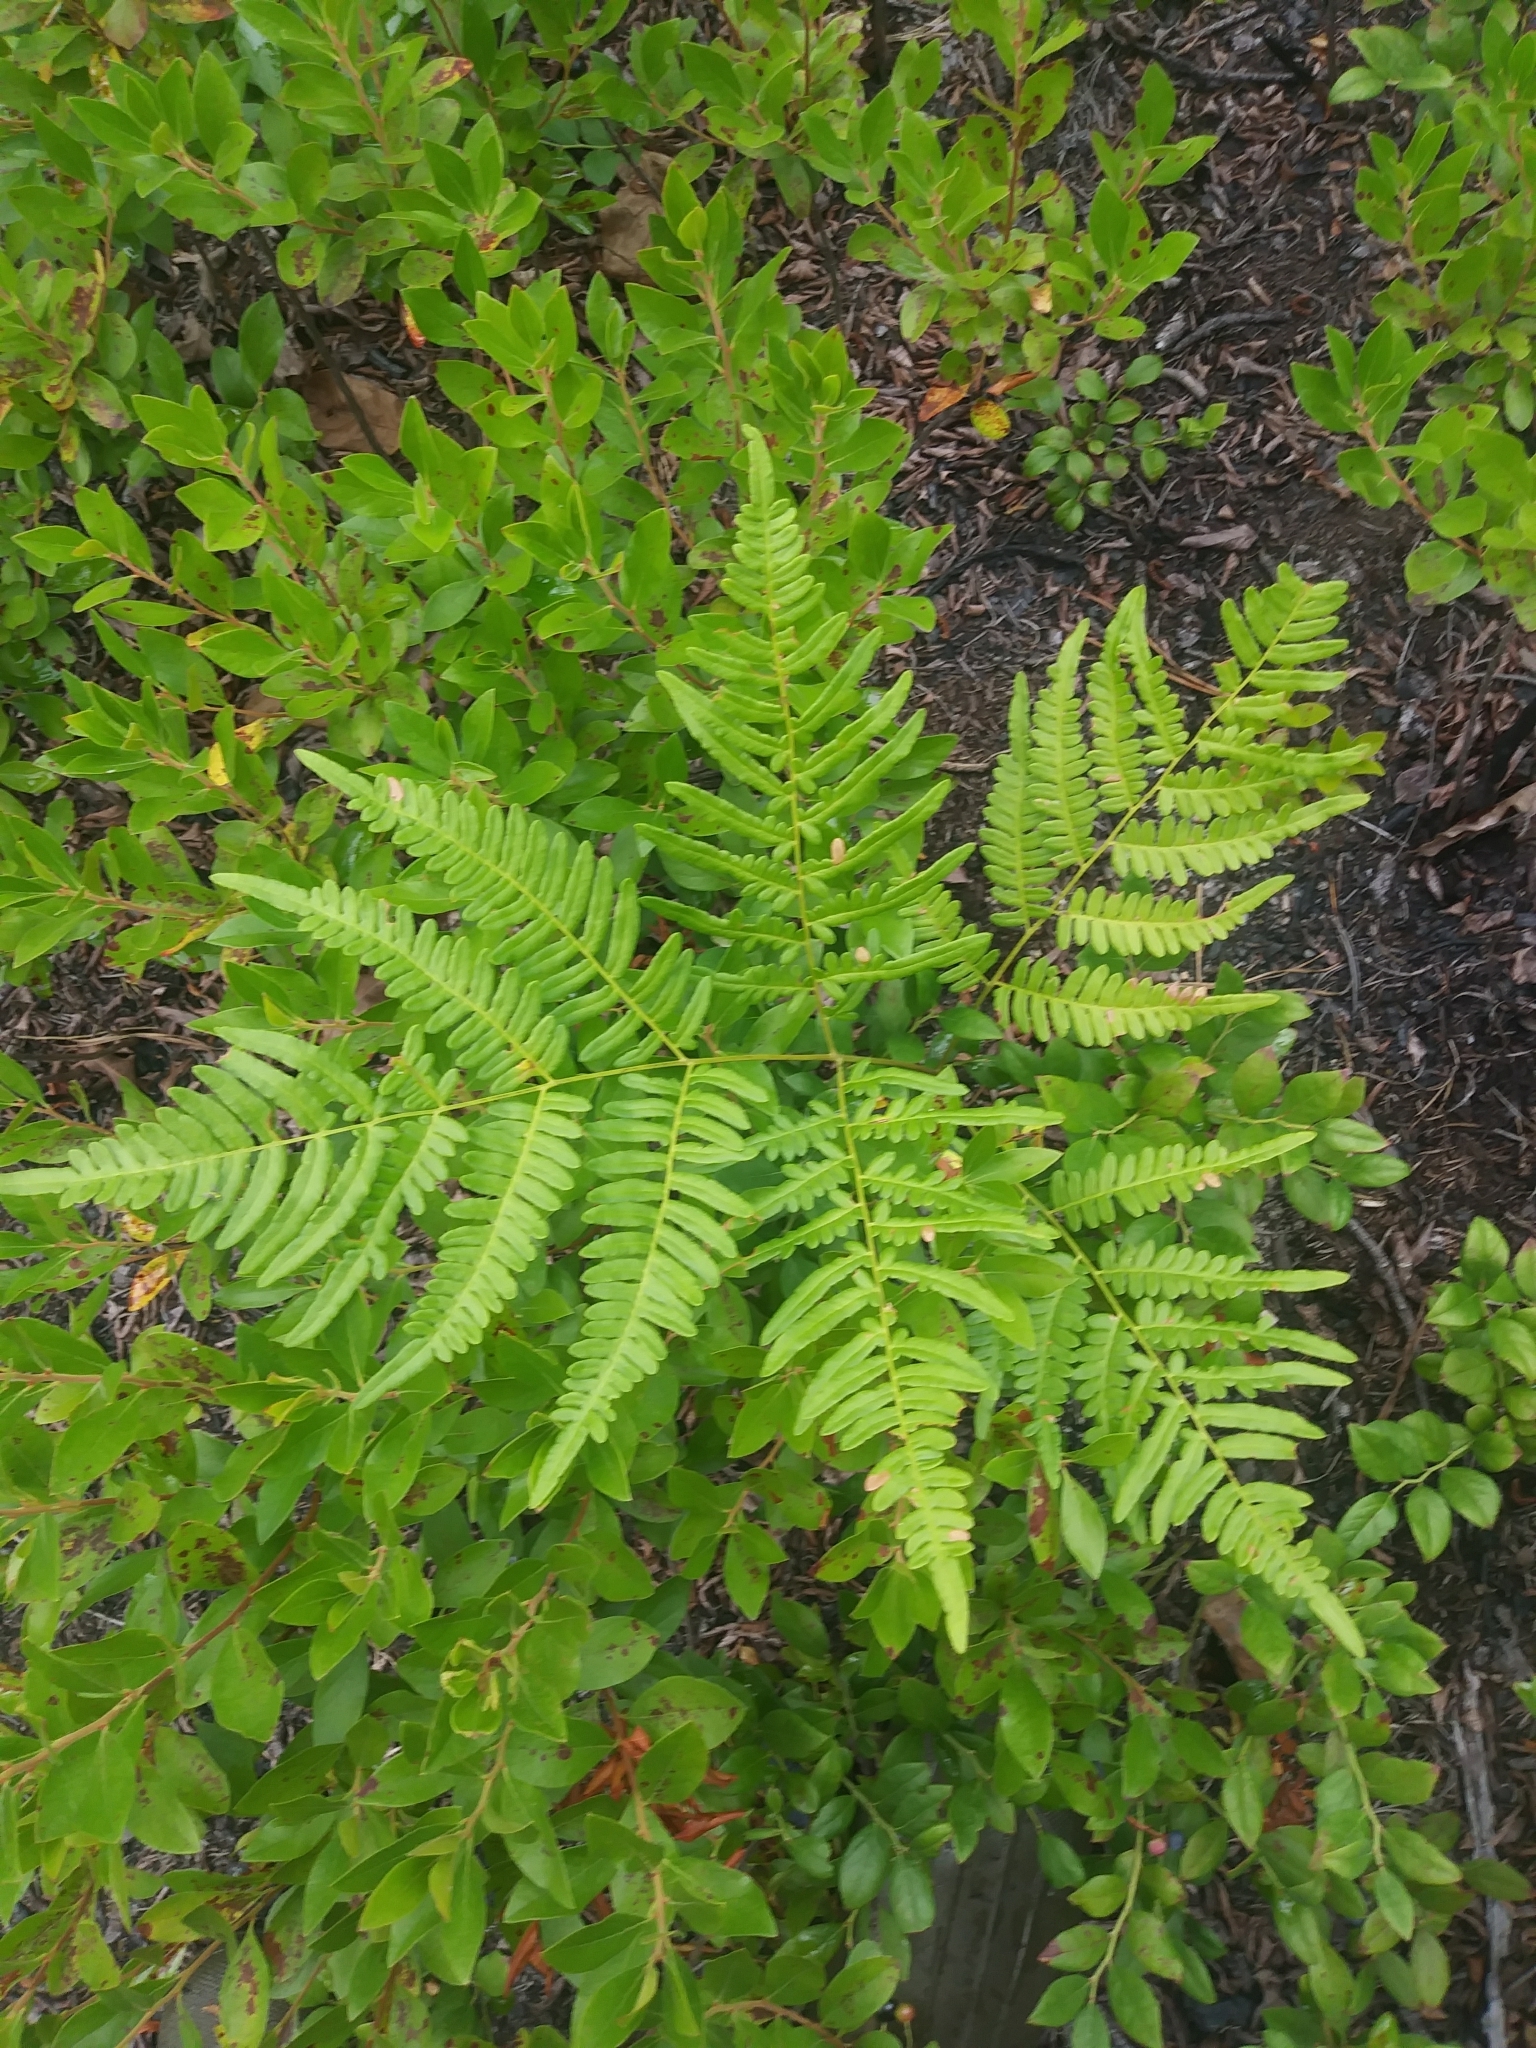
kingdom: Plantae
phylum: Tracheophyta
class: Polypodiopsida
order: Polypodiales
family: Dennstaedtiaceae
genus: Pteridium
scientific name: Pteridium aquilinum
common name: Bracken
